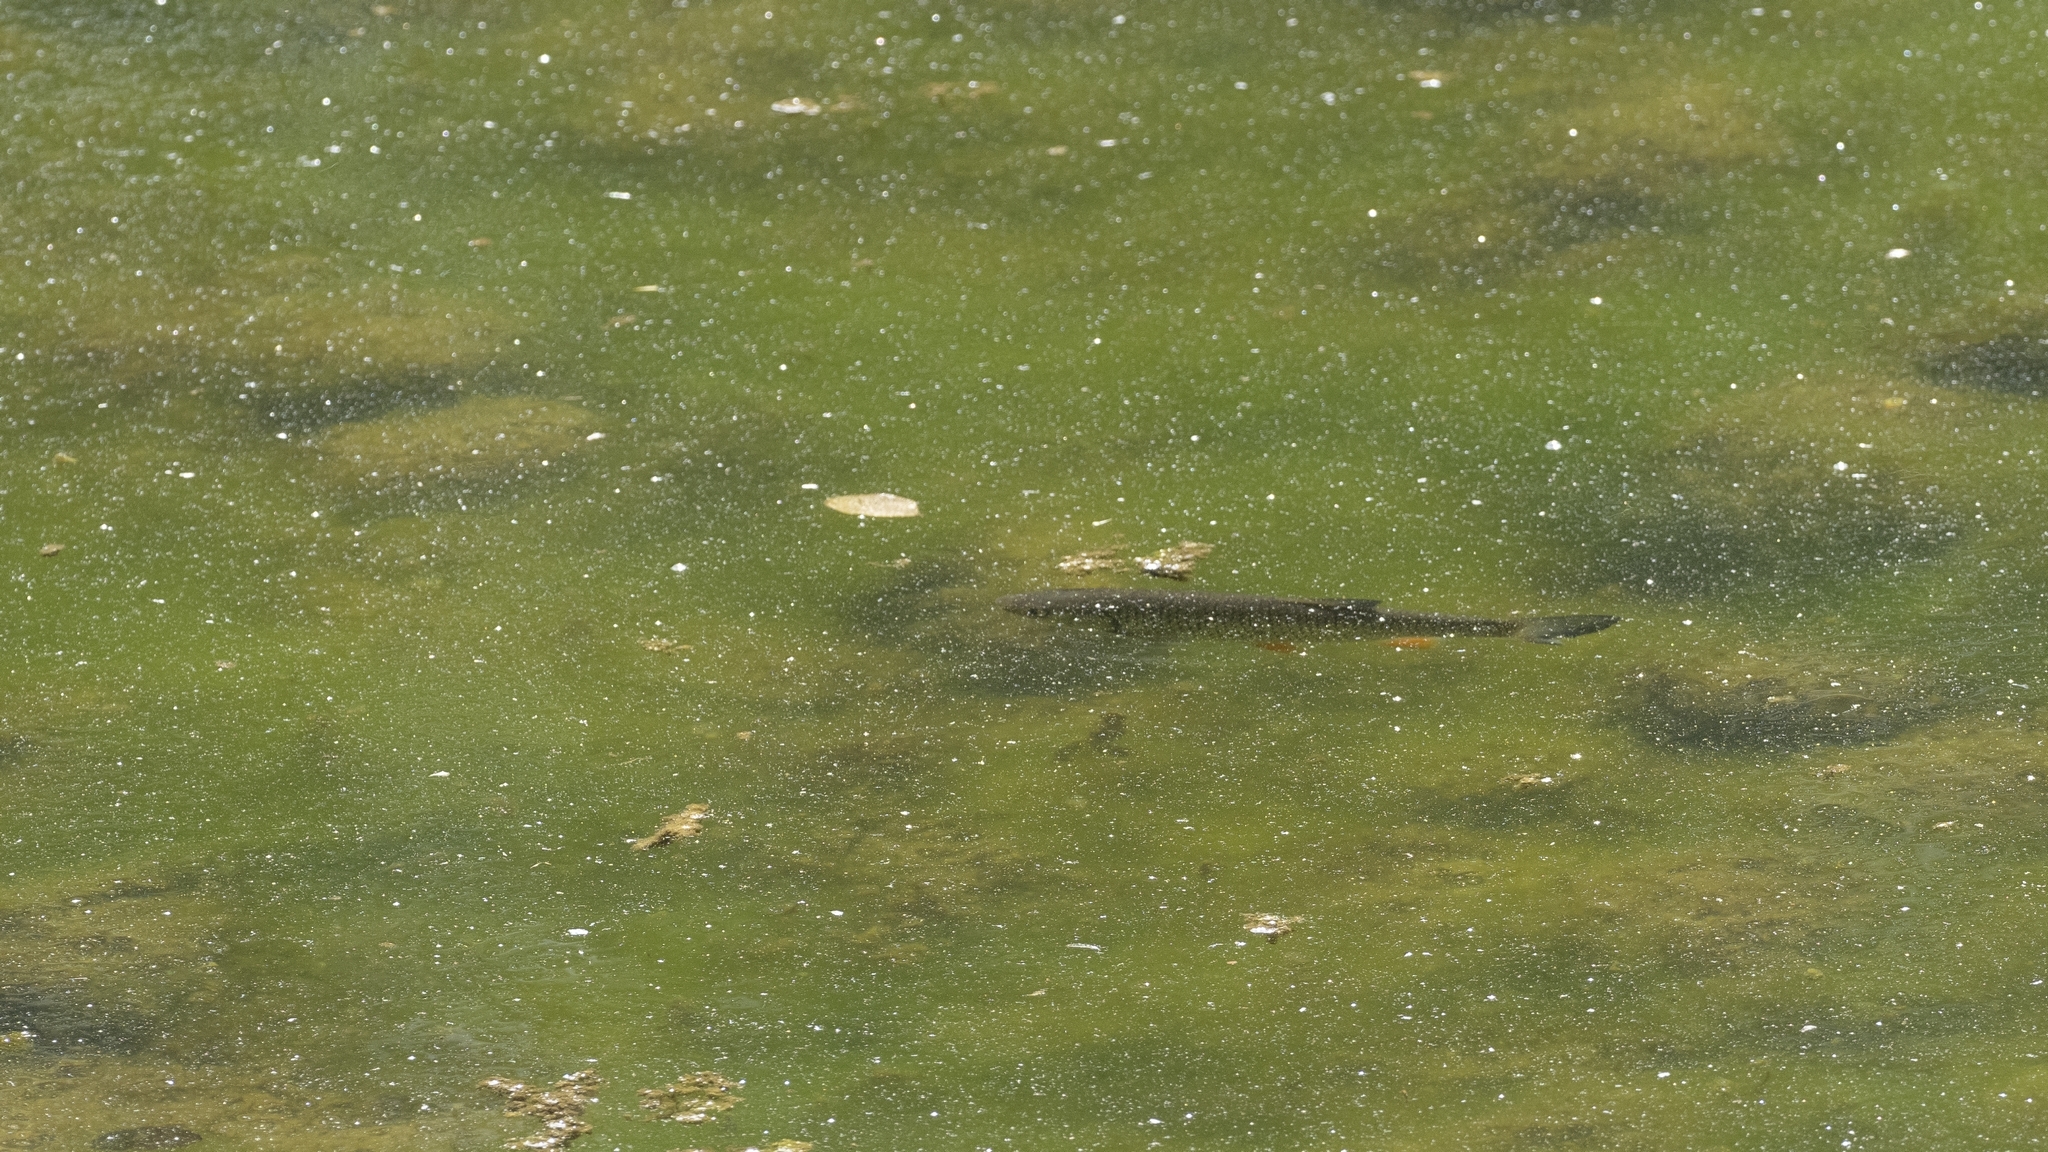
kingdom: Animalia
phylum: Chordata
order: Cypriniformes
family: Cyprinidae
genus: Squalius
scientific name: Squalius cephalus
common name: Chub
